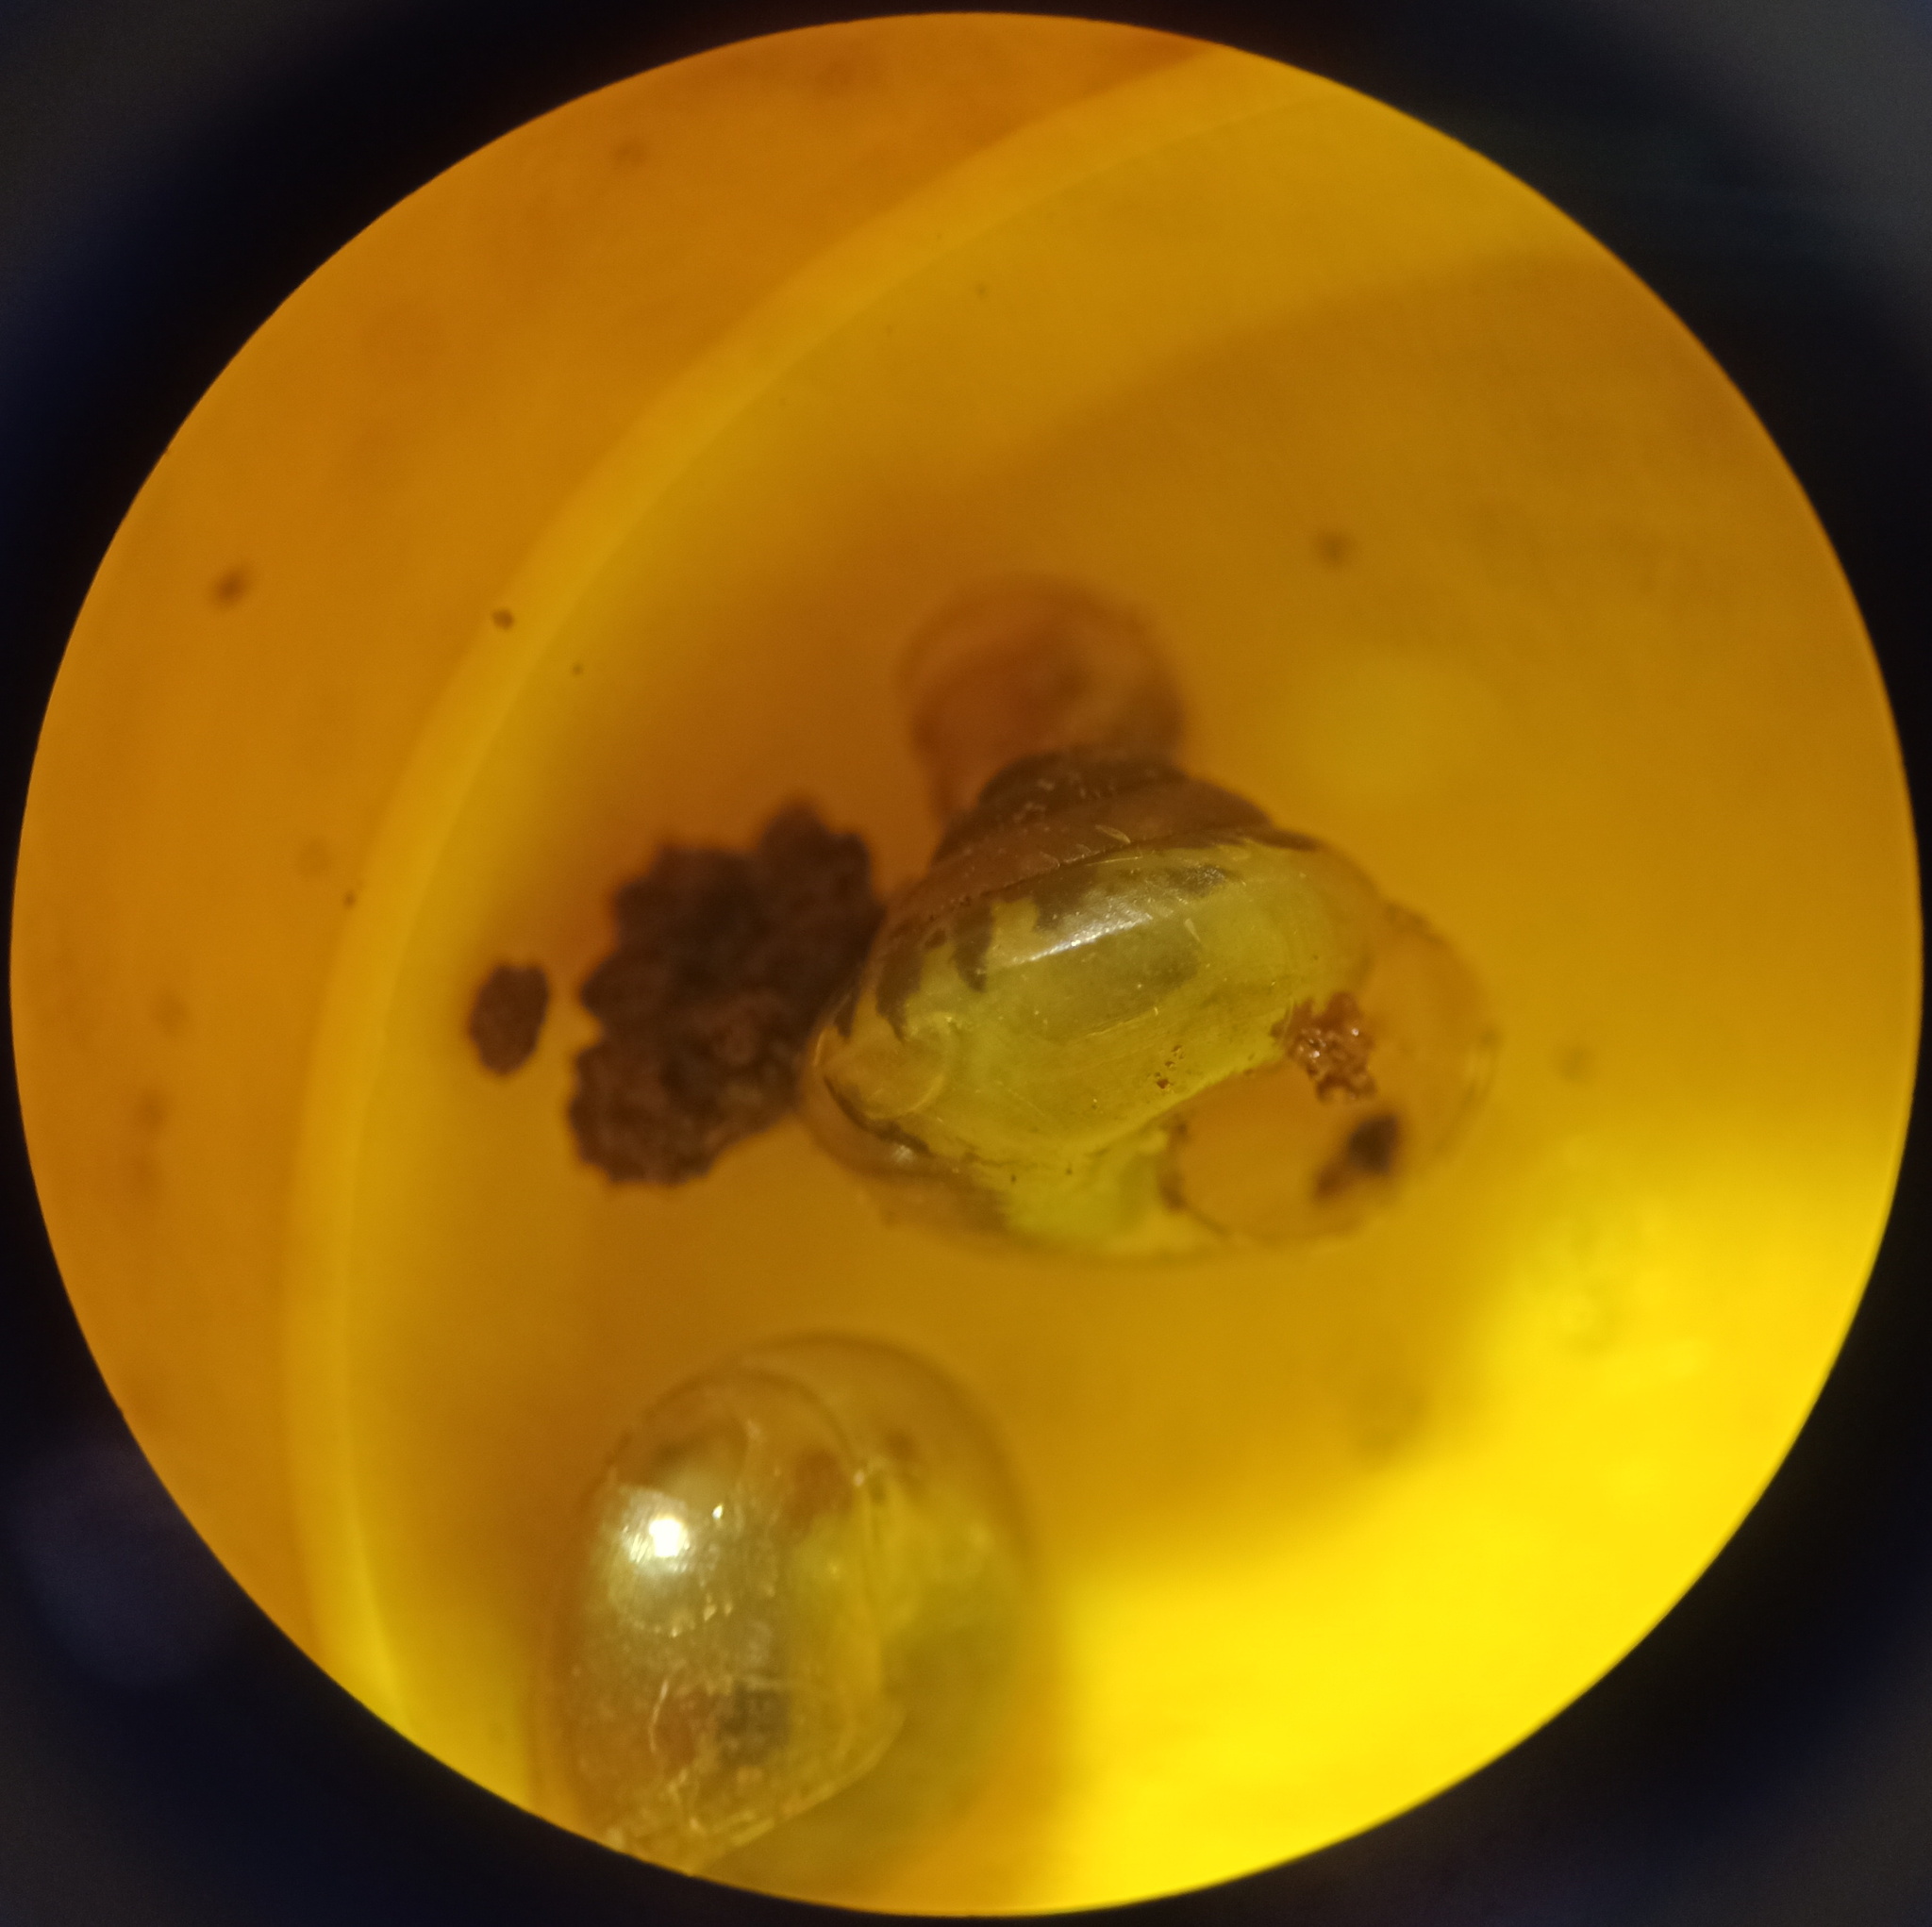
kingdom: Animalia
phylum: Mollusca
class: Gastropoda
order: Stylommatophora
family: Euconulidae
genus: Habroconus
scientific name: Habroconus semenlini
